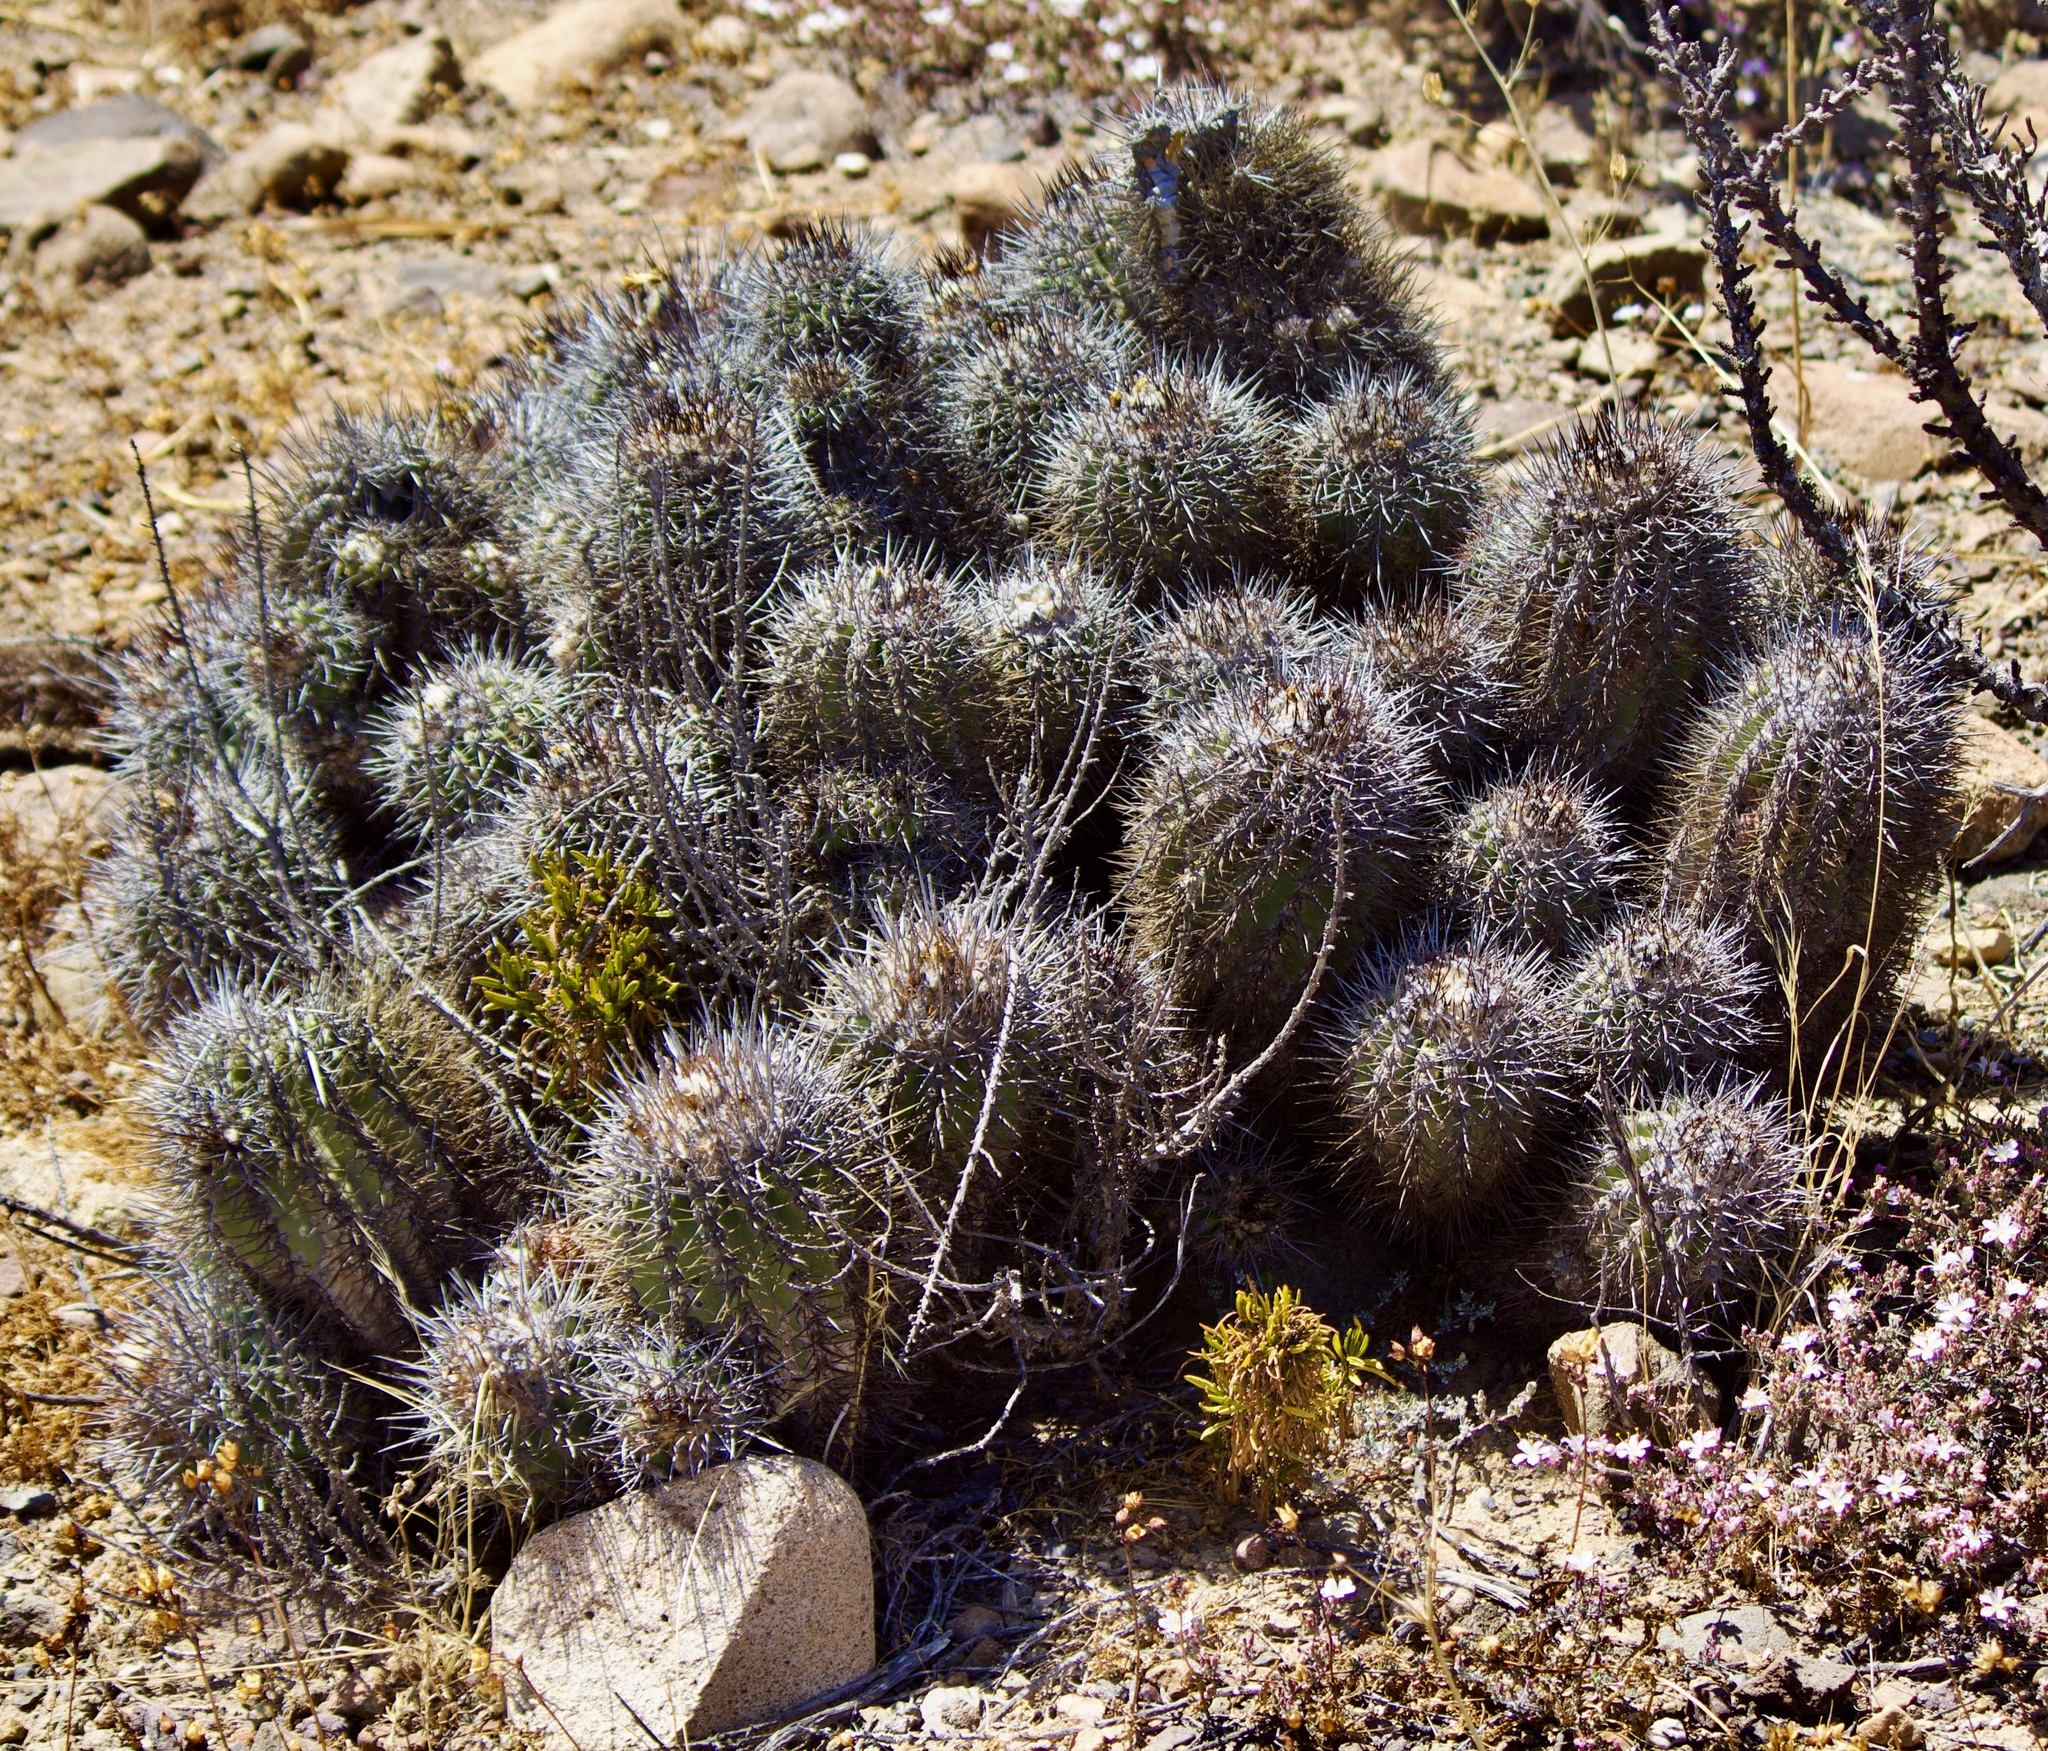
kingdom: Plantae
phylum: Tracheophyta
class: Magnoliopsida
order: Caryophyllales
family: Cactaceae
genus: Copiapoa
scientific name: Copiapoa coquimbana
